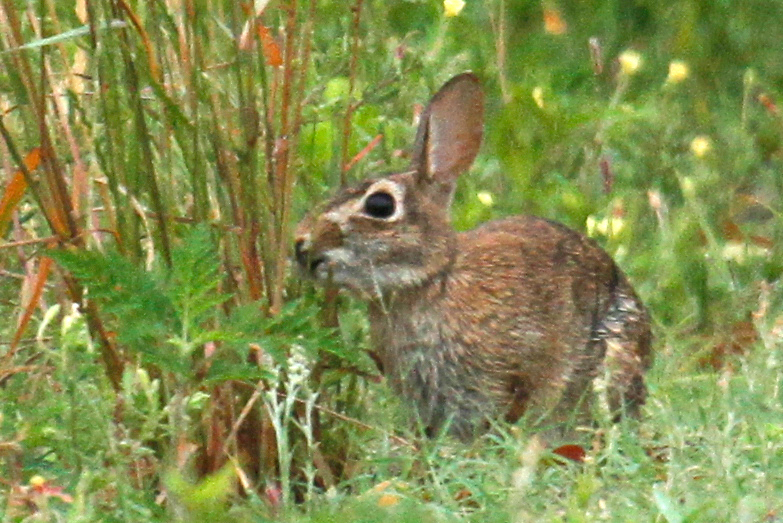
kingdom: Animalia
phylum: Chordata
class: Mammalia
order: Lagomorpha
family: Leporidae
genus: Sylvilagus
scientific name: Sylvilagus floridanus
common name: Eastern cottontail
